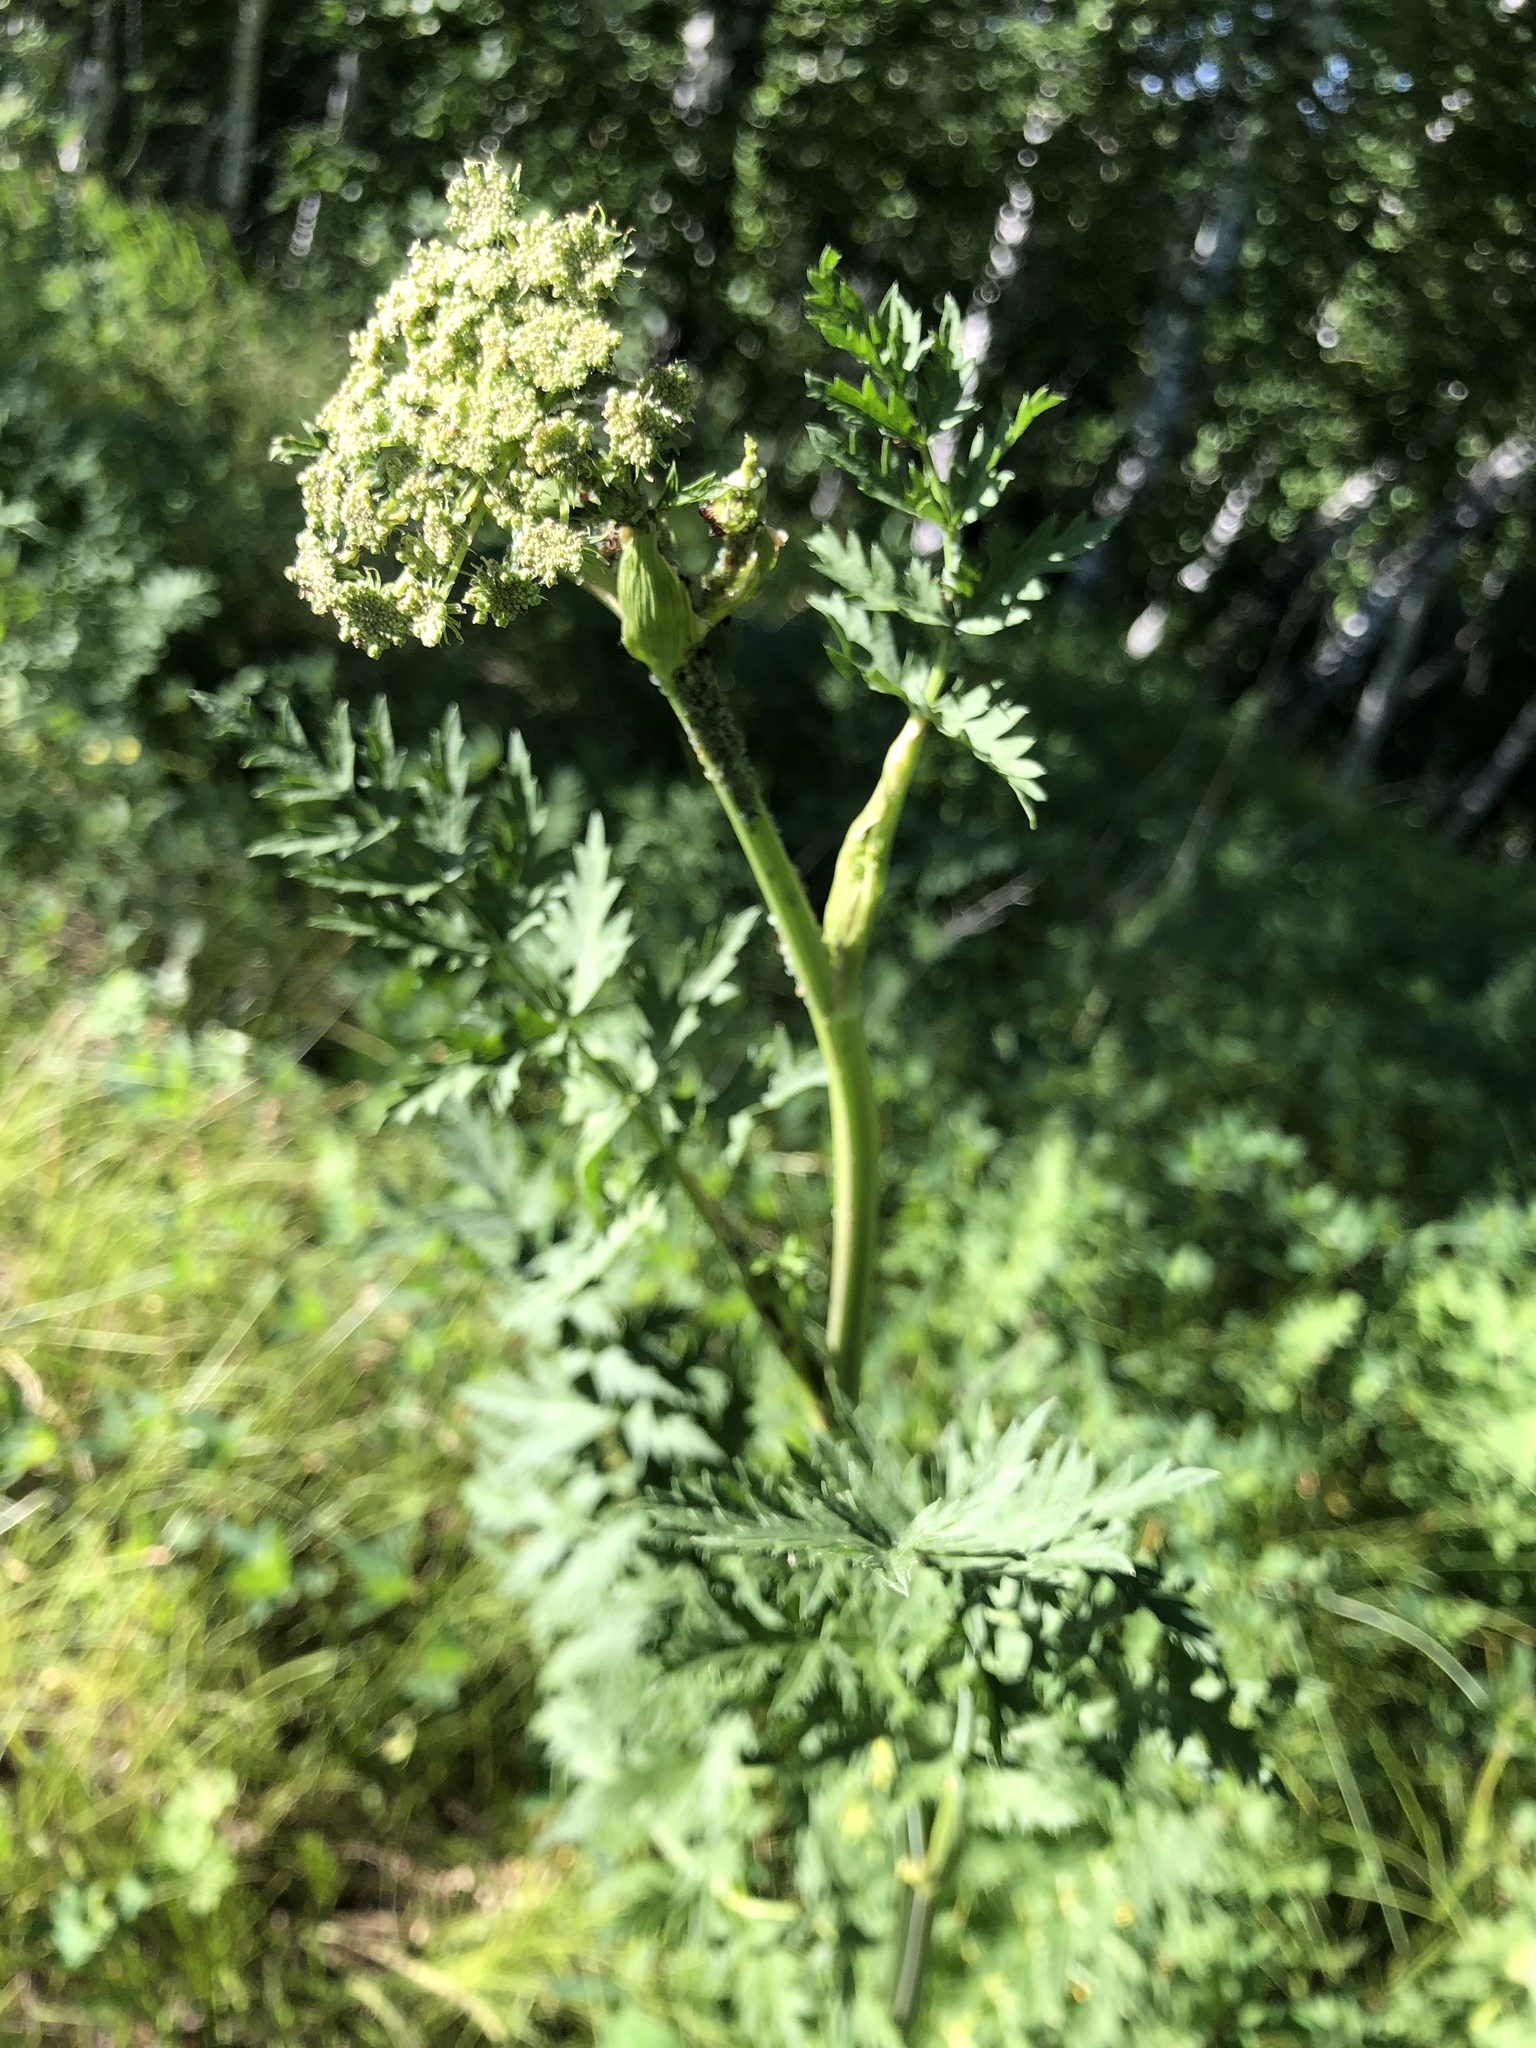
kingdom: Plantae
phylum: Tracheophyta
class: Magnoliopsida
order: Apiales
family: Apiaceae
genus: Seseli
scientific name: Seseli libanotis
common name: Mooncarrot
